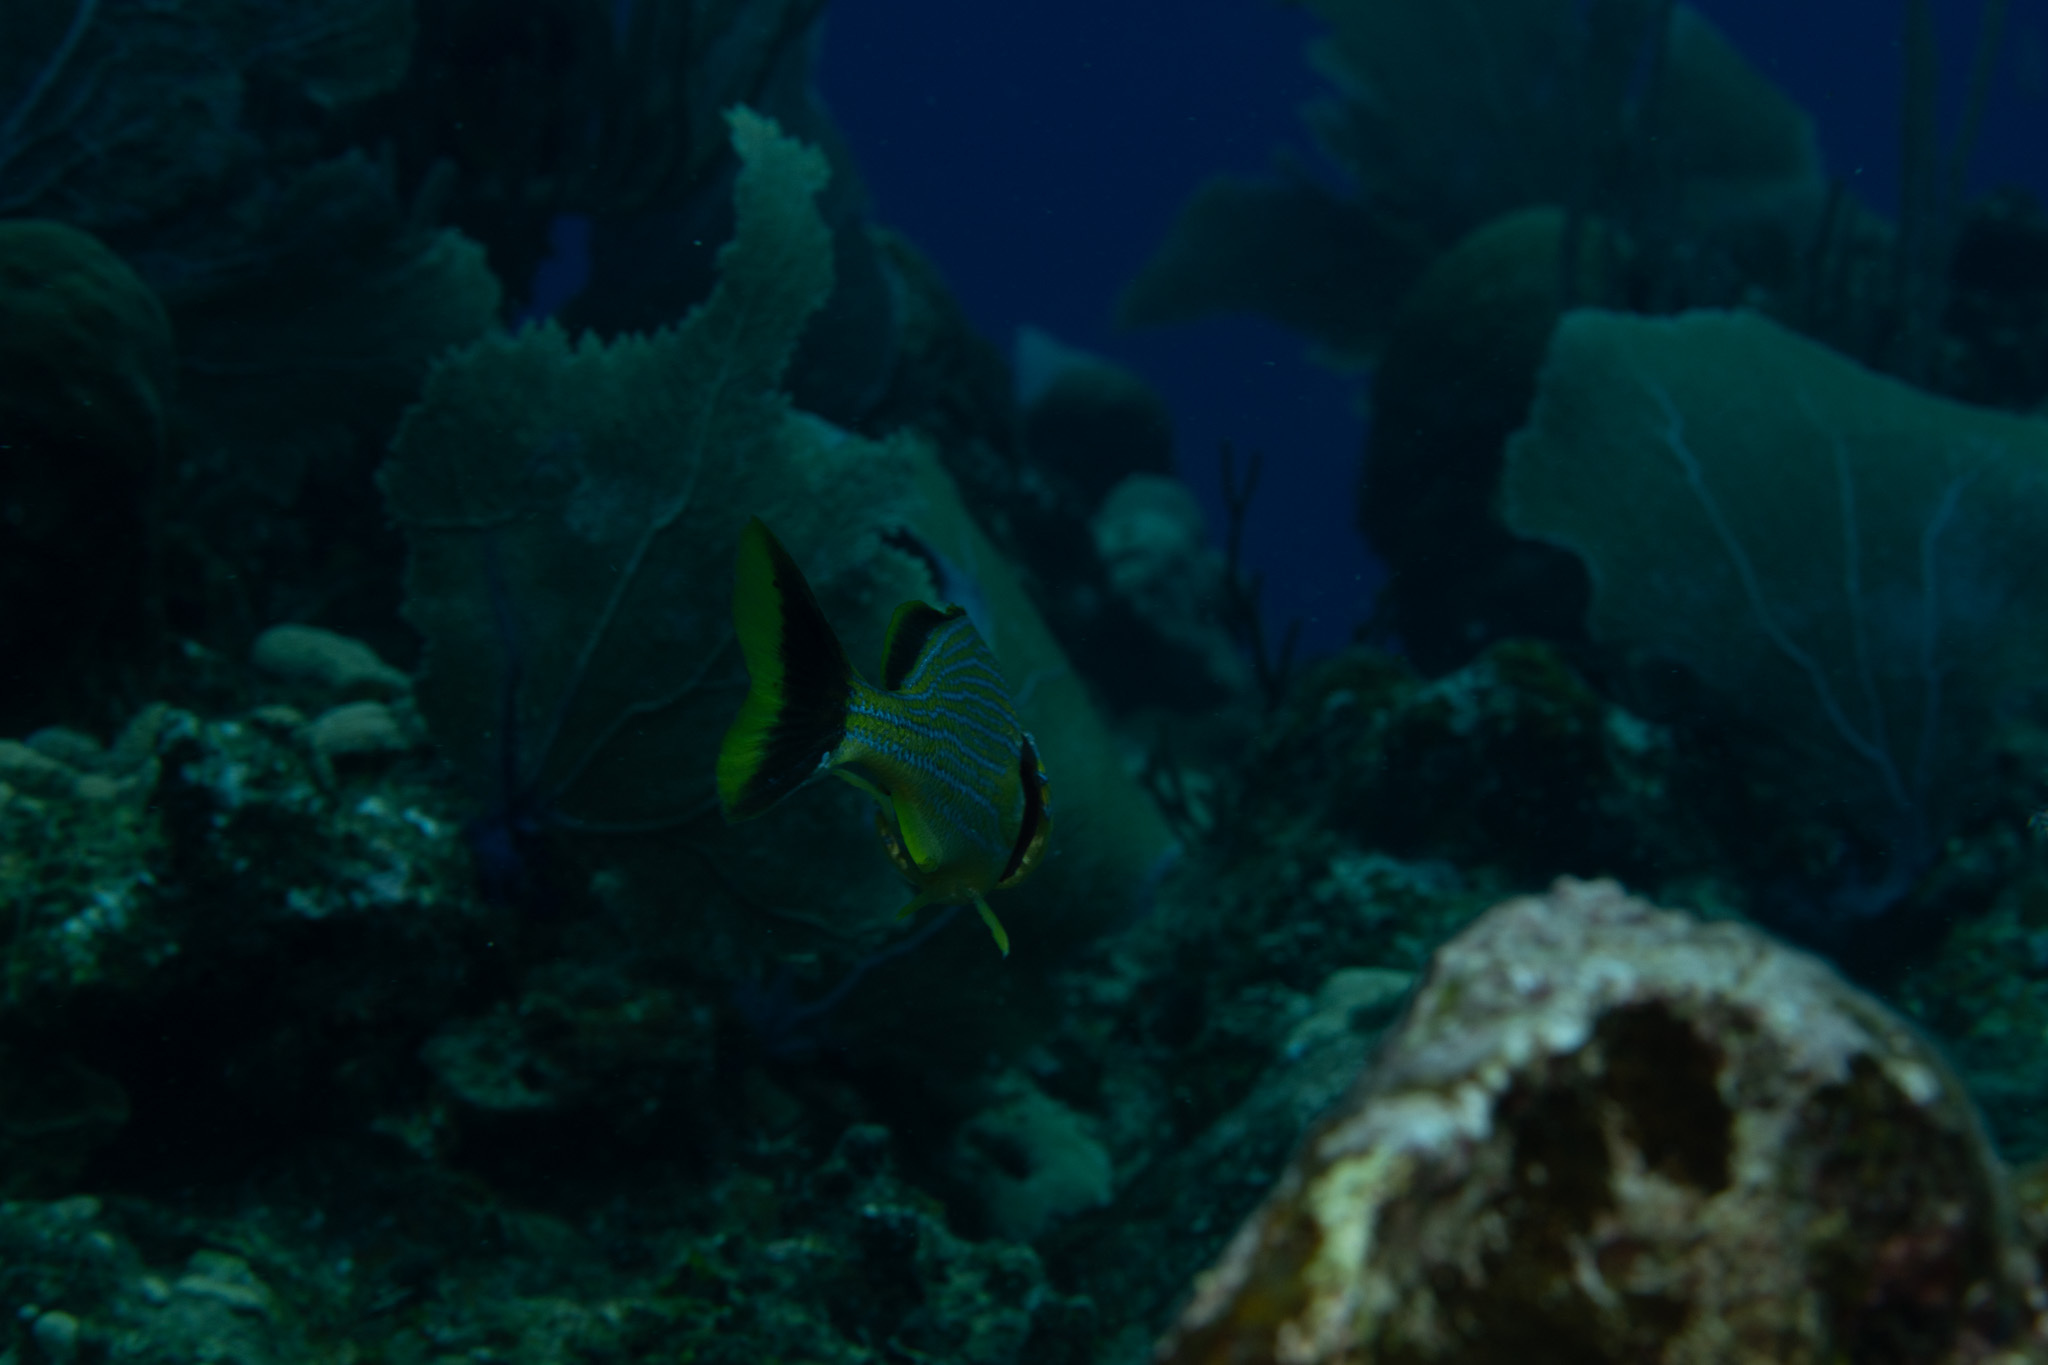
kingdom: Animalia
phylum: Chordata
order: Perciformes
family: Haemulidae
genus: Haemulon
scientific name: Haemulon sciurus
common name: Bluestriped grunt
